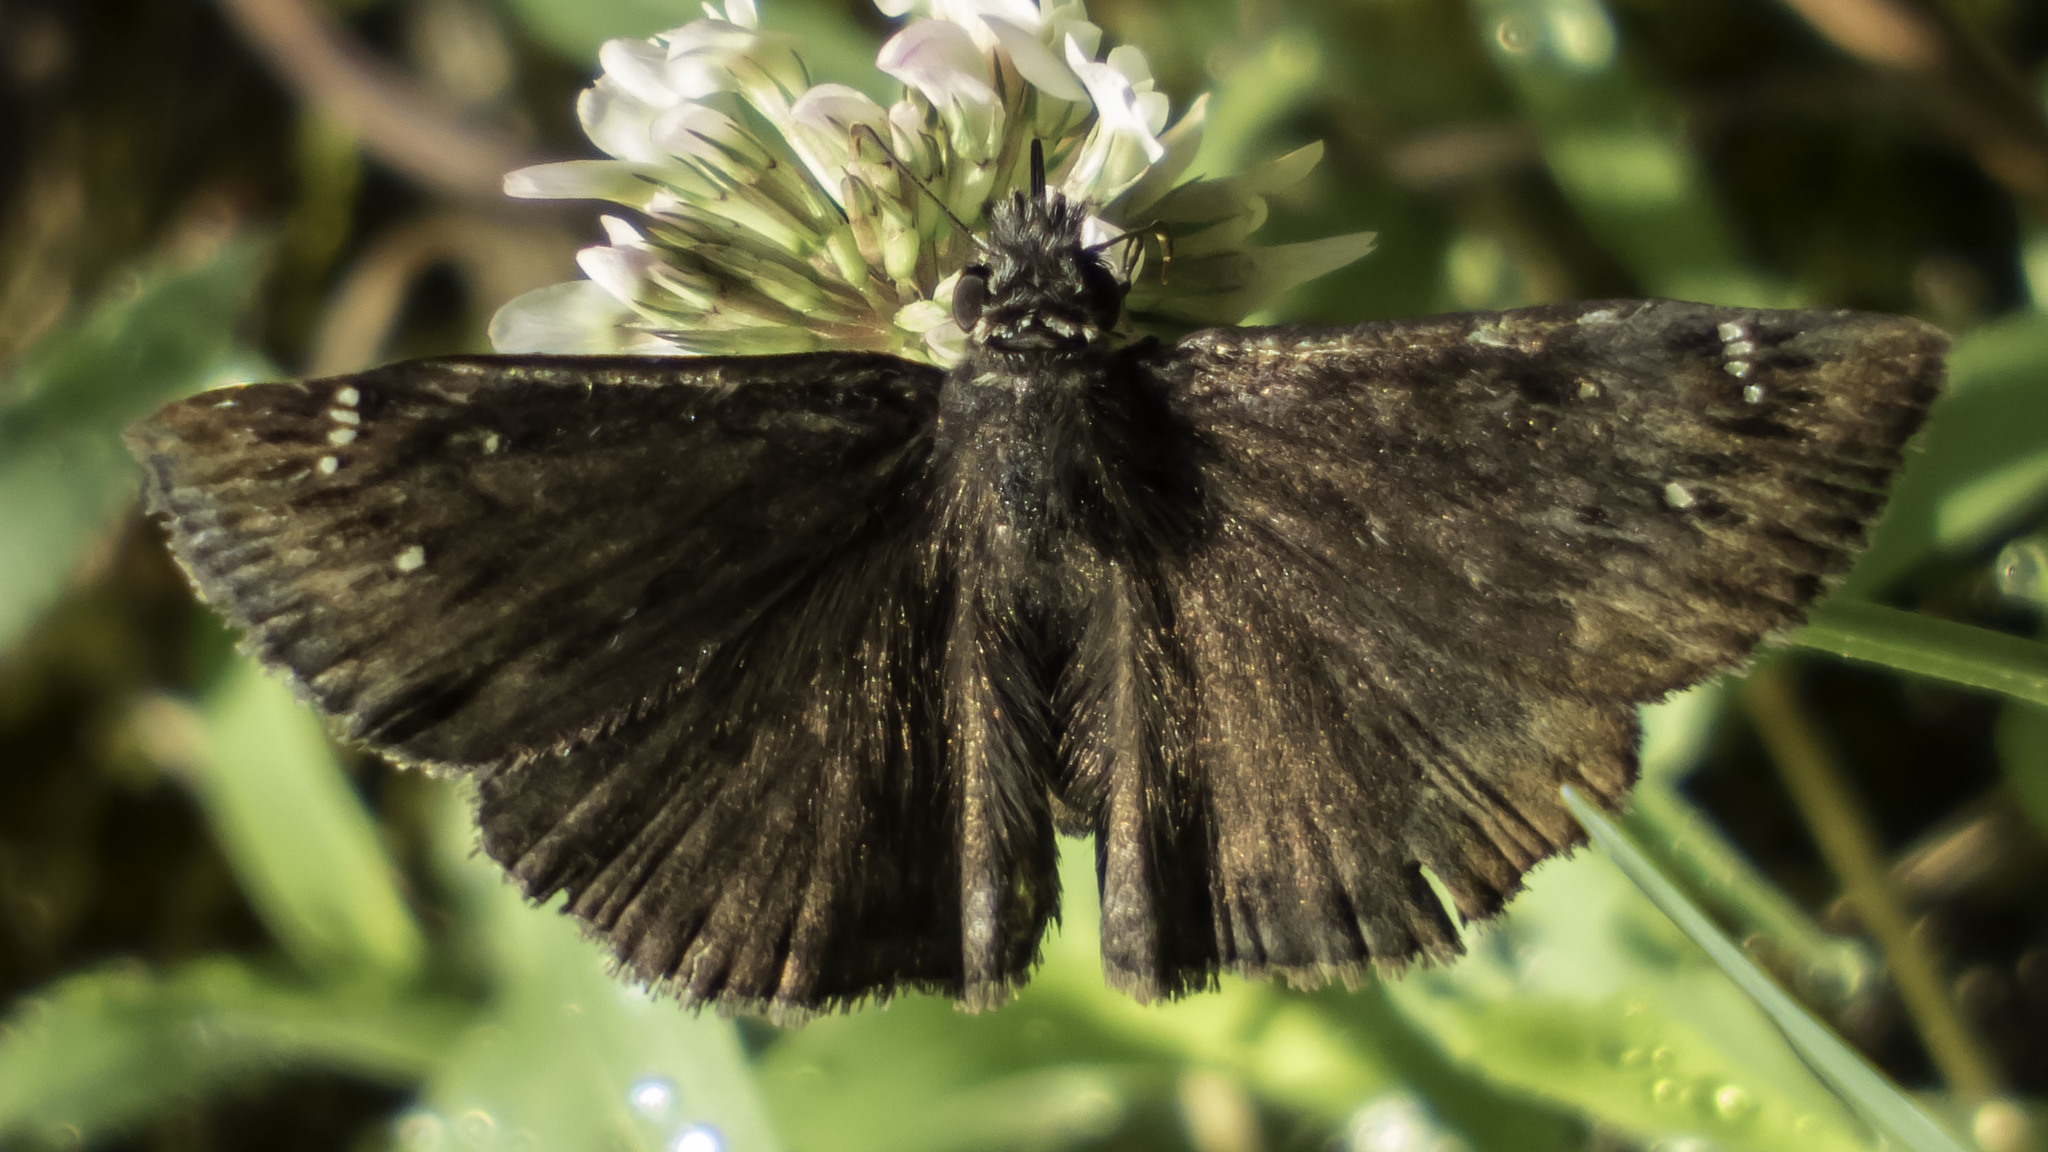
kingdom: Animalia
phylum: Arthropoda
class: Insecta
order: Lepidoptera
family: Hesperiidae
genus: Erynnis
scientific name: Erynnis horatius
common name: Horace's duskywing
